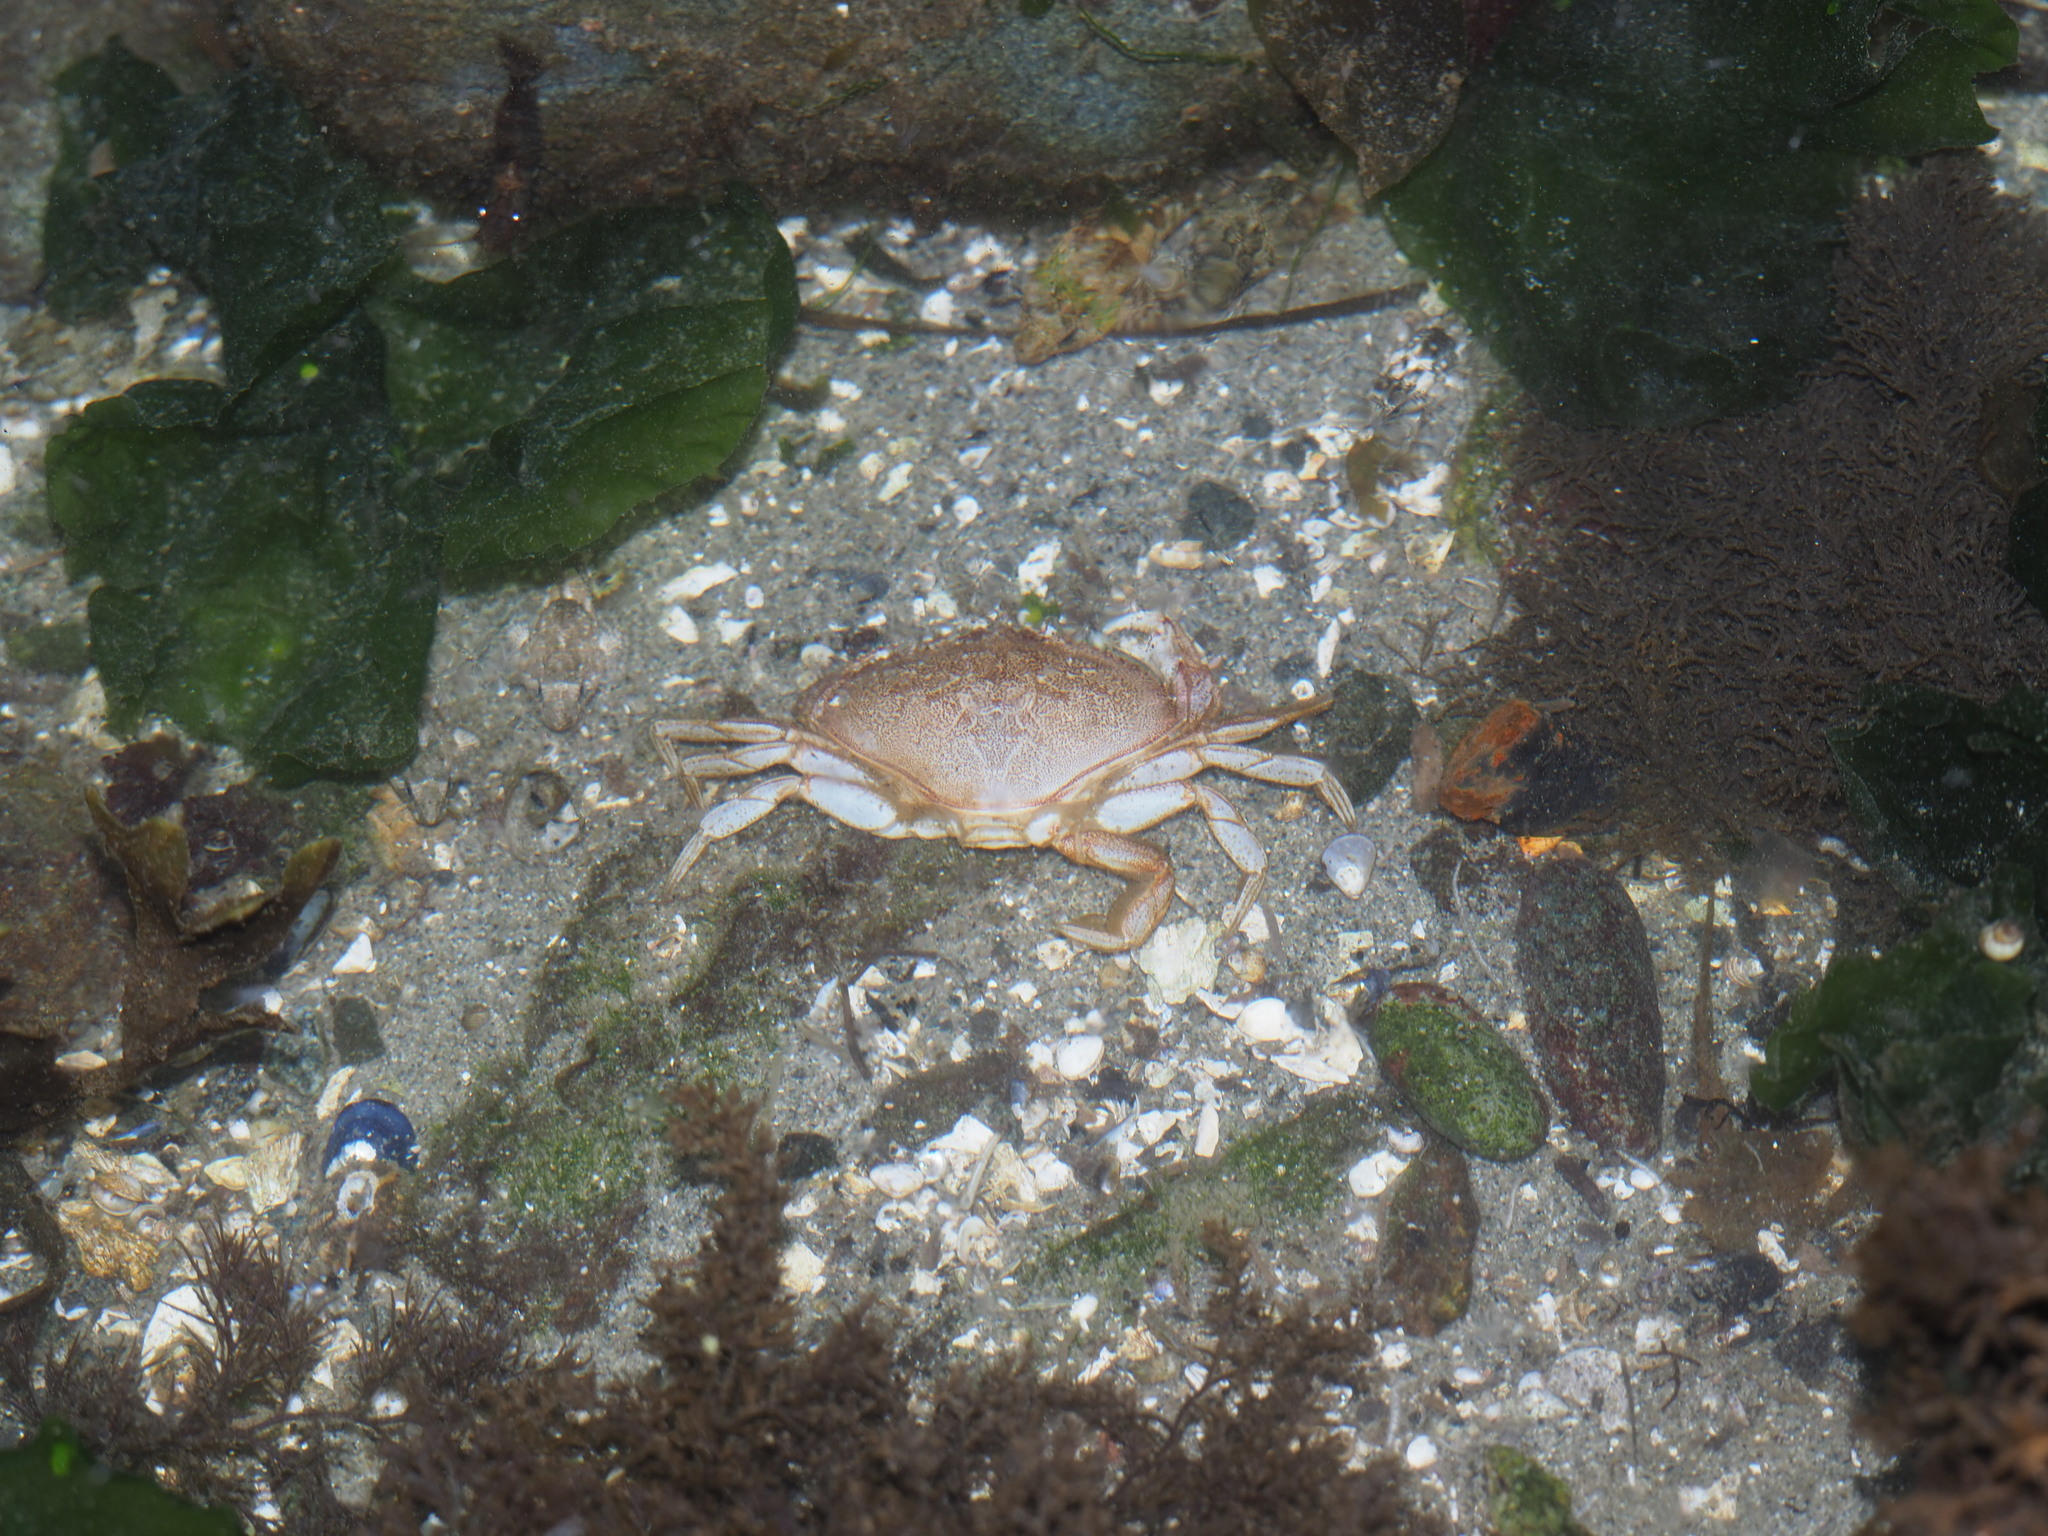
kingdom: Animalia
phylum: Arthropoda
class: Malacostraca
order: Decapoda
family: Cancridae
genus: Metacarcinus
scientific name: Metacarcinus magister
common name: Californian crab
